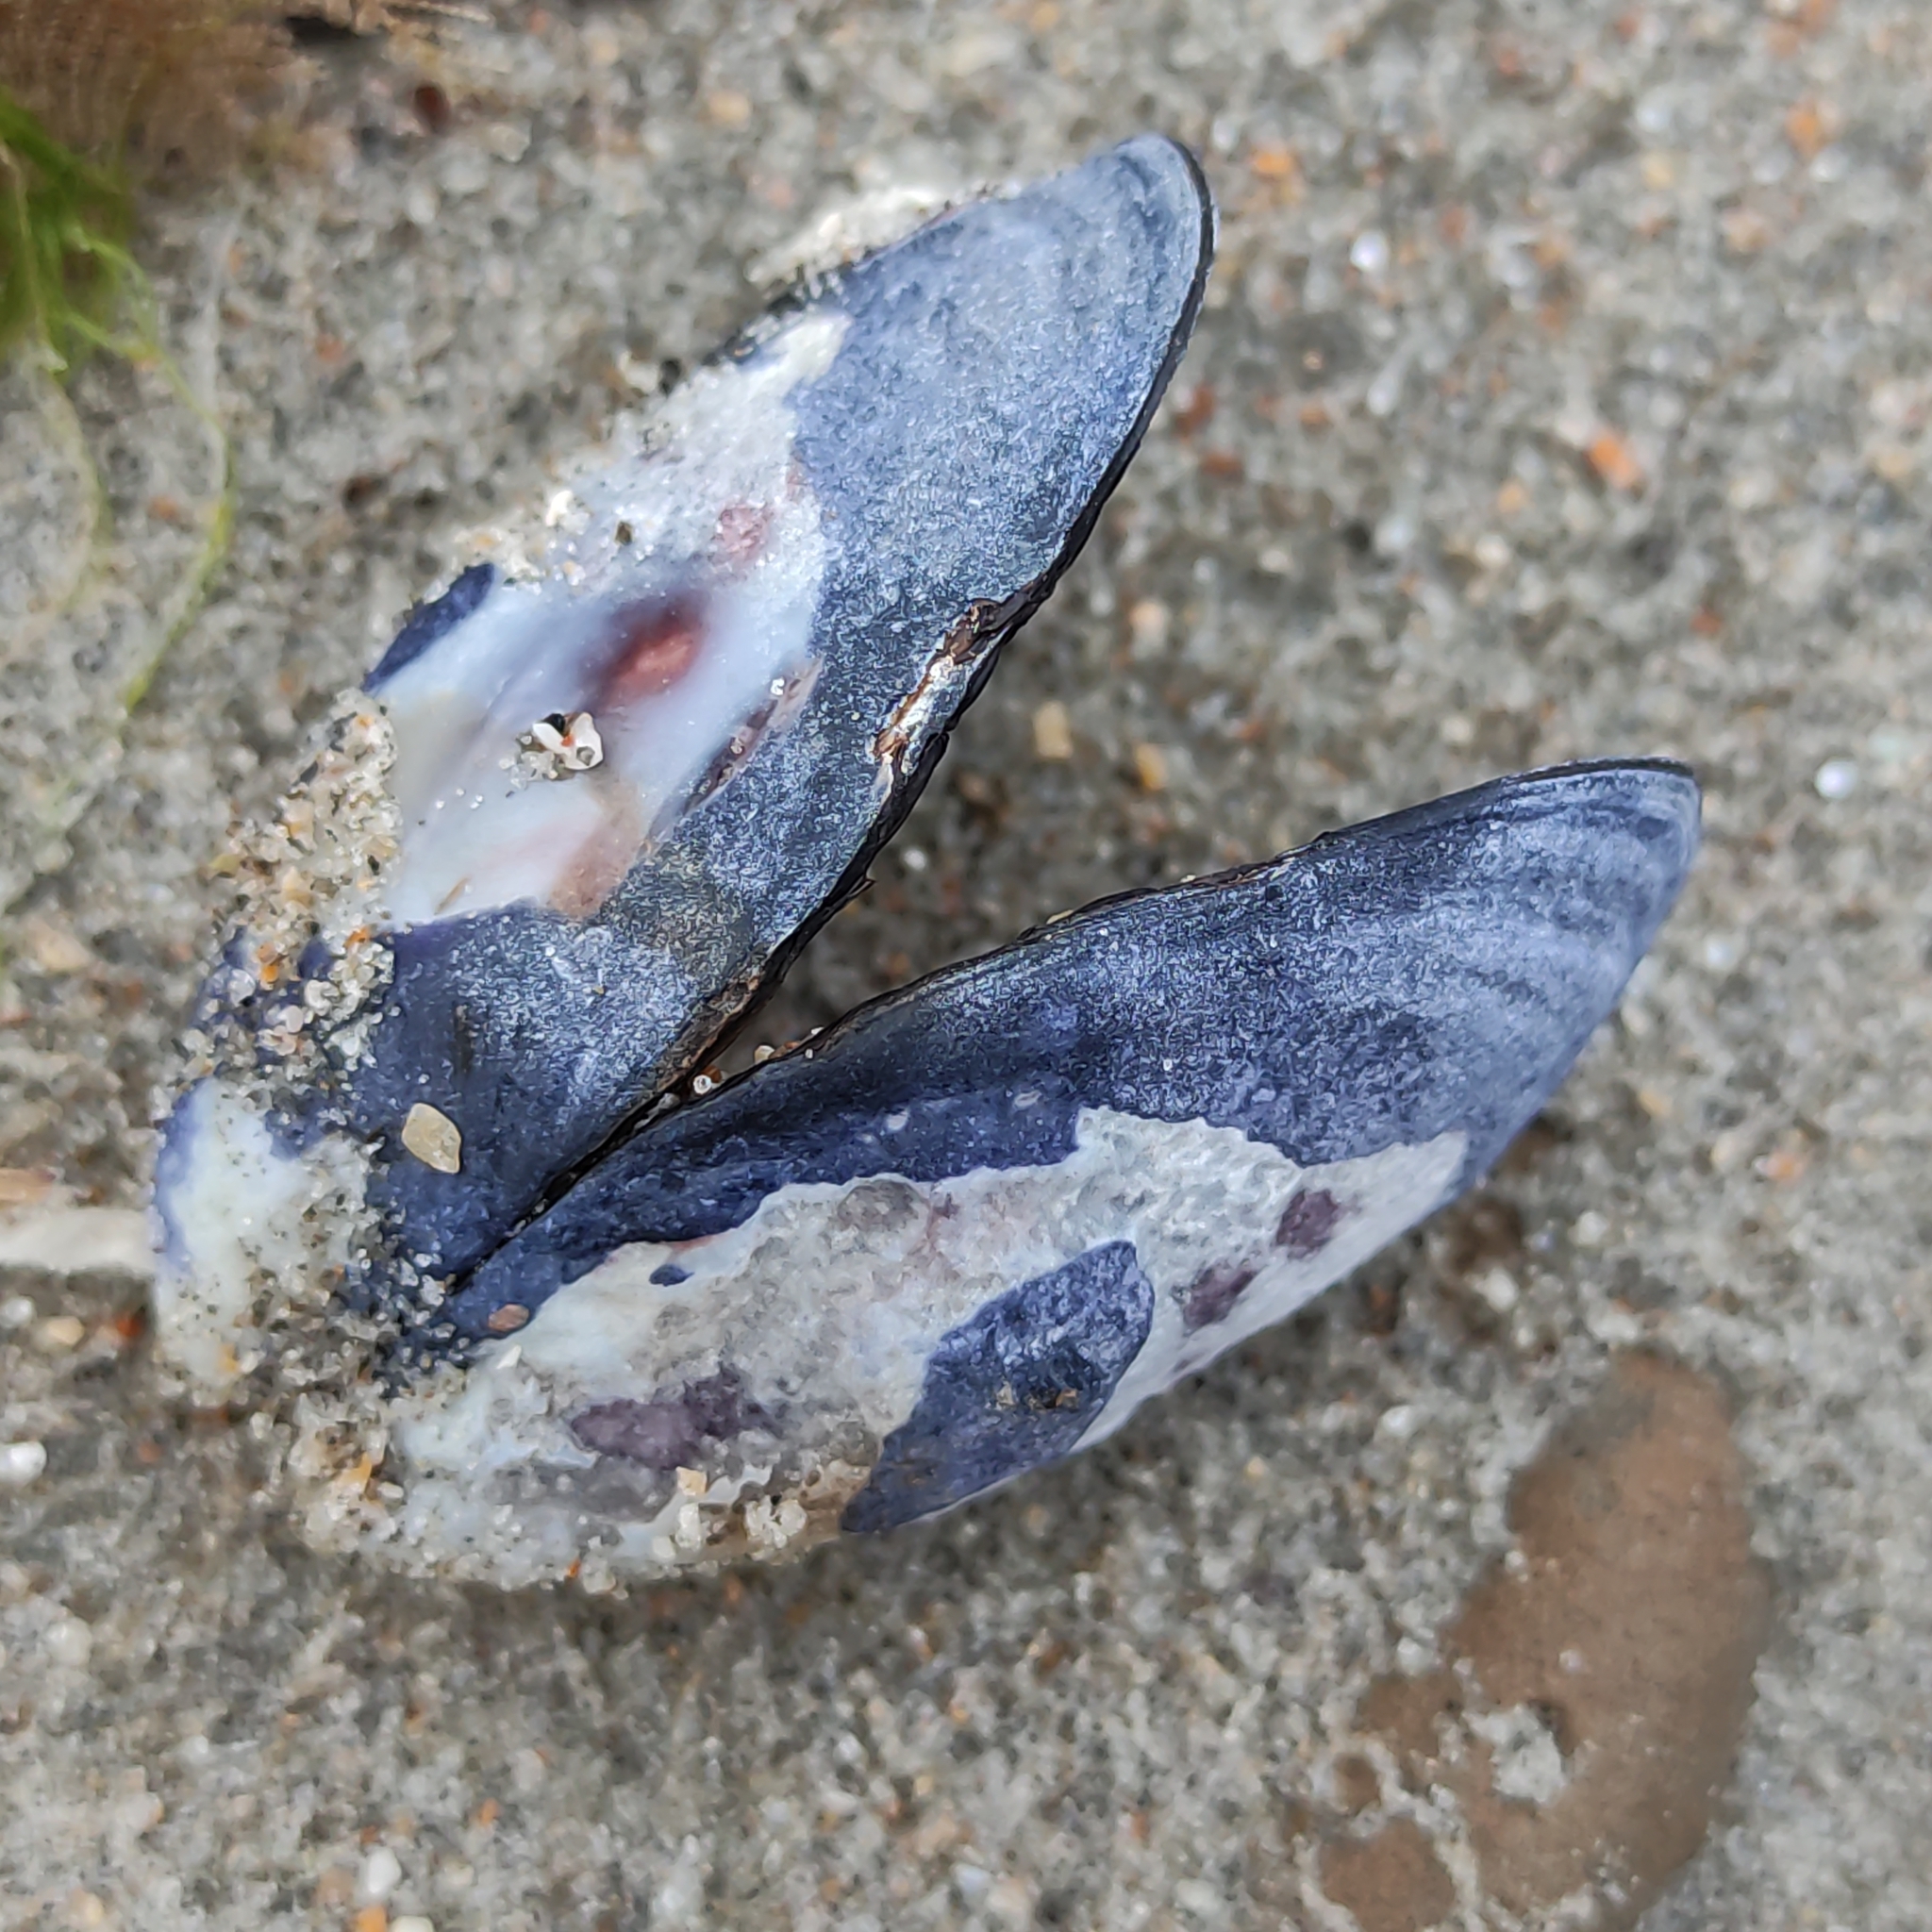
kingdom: Animalia
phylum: Mollusca
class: Bivalvia
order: Mytilida
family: Mytilidae
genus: Mytilus
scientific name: Mytilus planulatus
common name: Australian mussel
